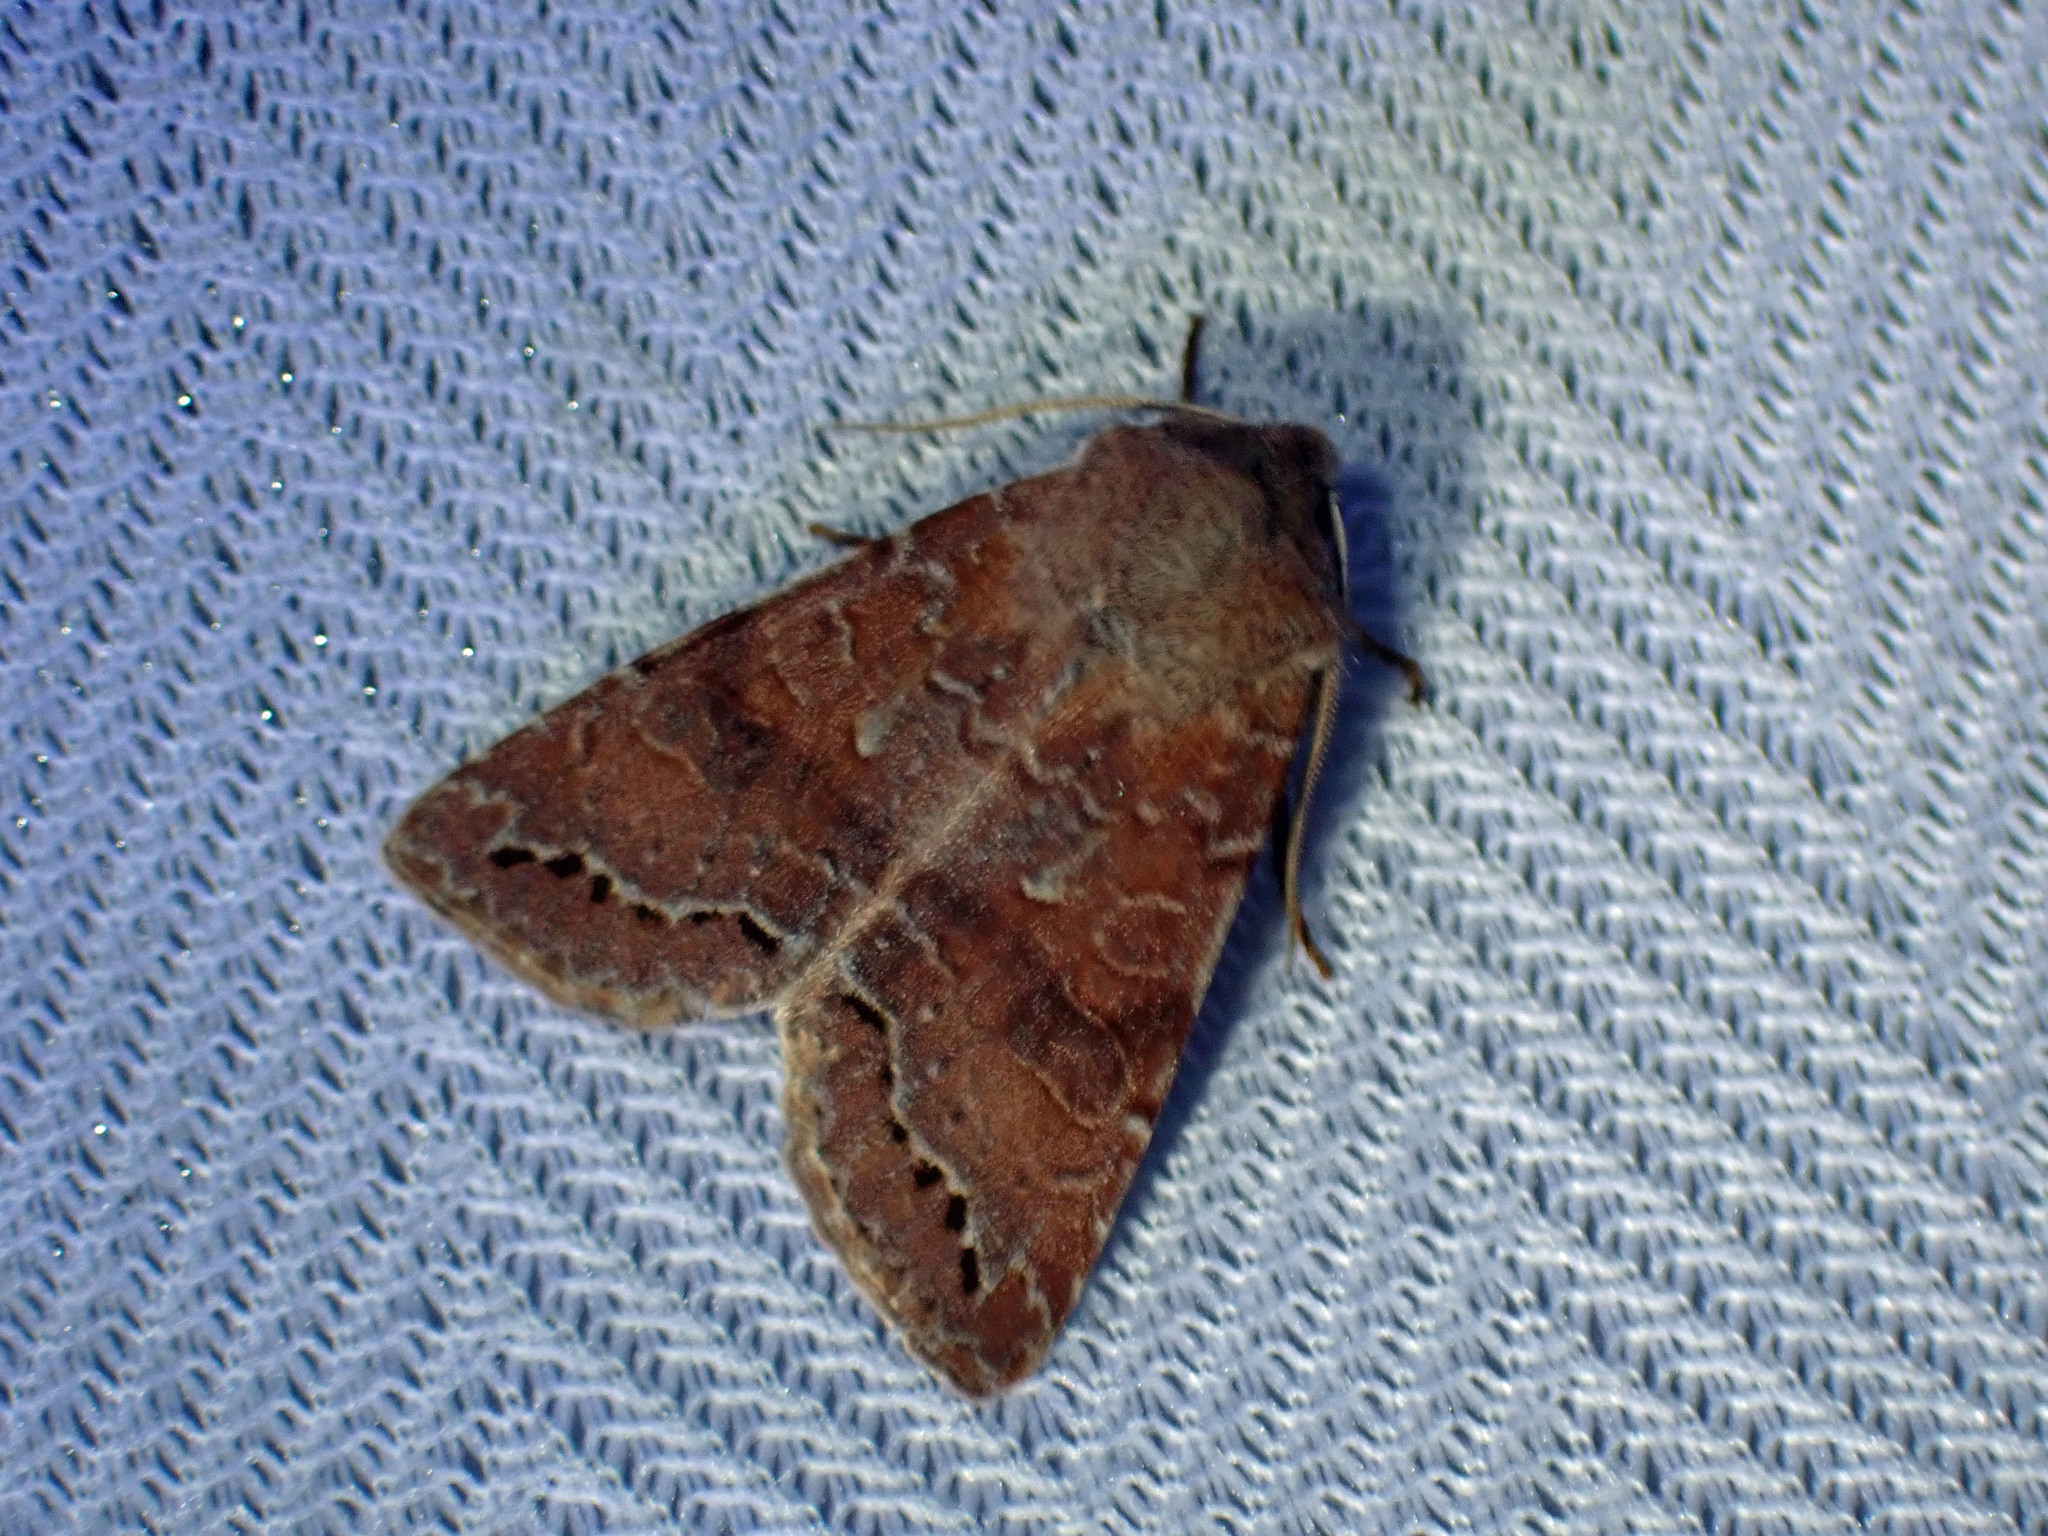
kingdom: Animalia
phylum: Arthropoda
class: Insecta
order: Lepidoptera
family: Noctuidae
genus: Orthosia
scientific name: Orthosia revicta
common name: Rusty whitesided caterpillar
